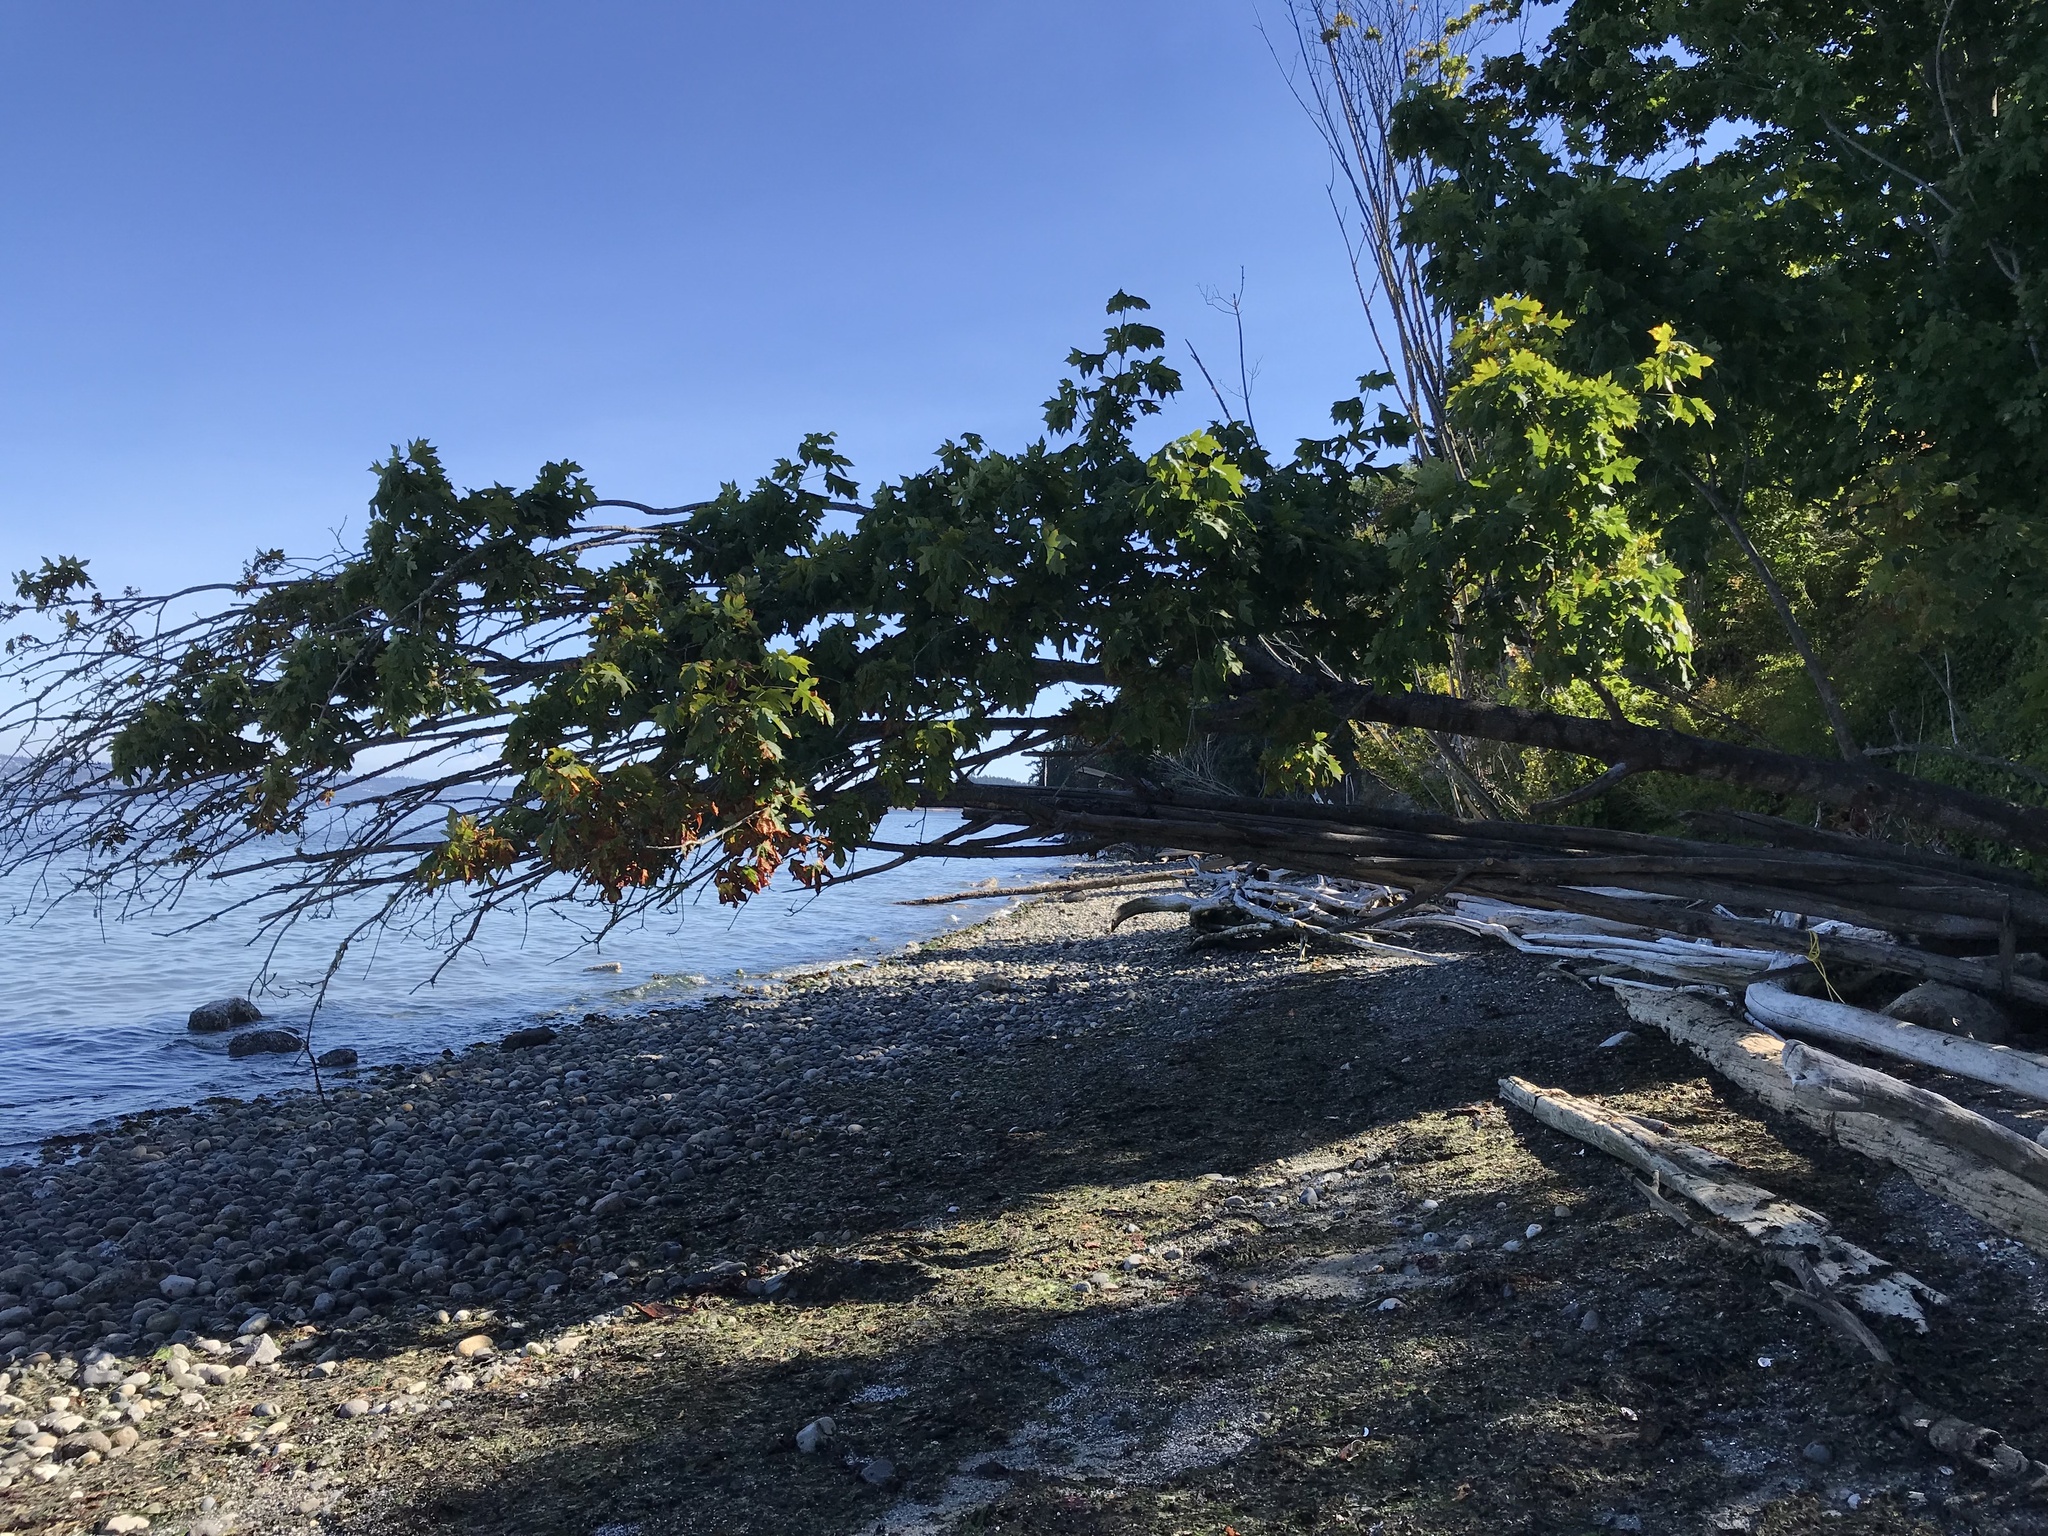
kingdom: Plantae
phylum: Tracheophyta
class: Magnoliopsida
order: Sapindales
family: Sapindaceae
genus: Acer
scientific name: Acer macrophyllum
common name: Oregon maple
